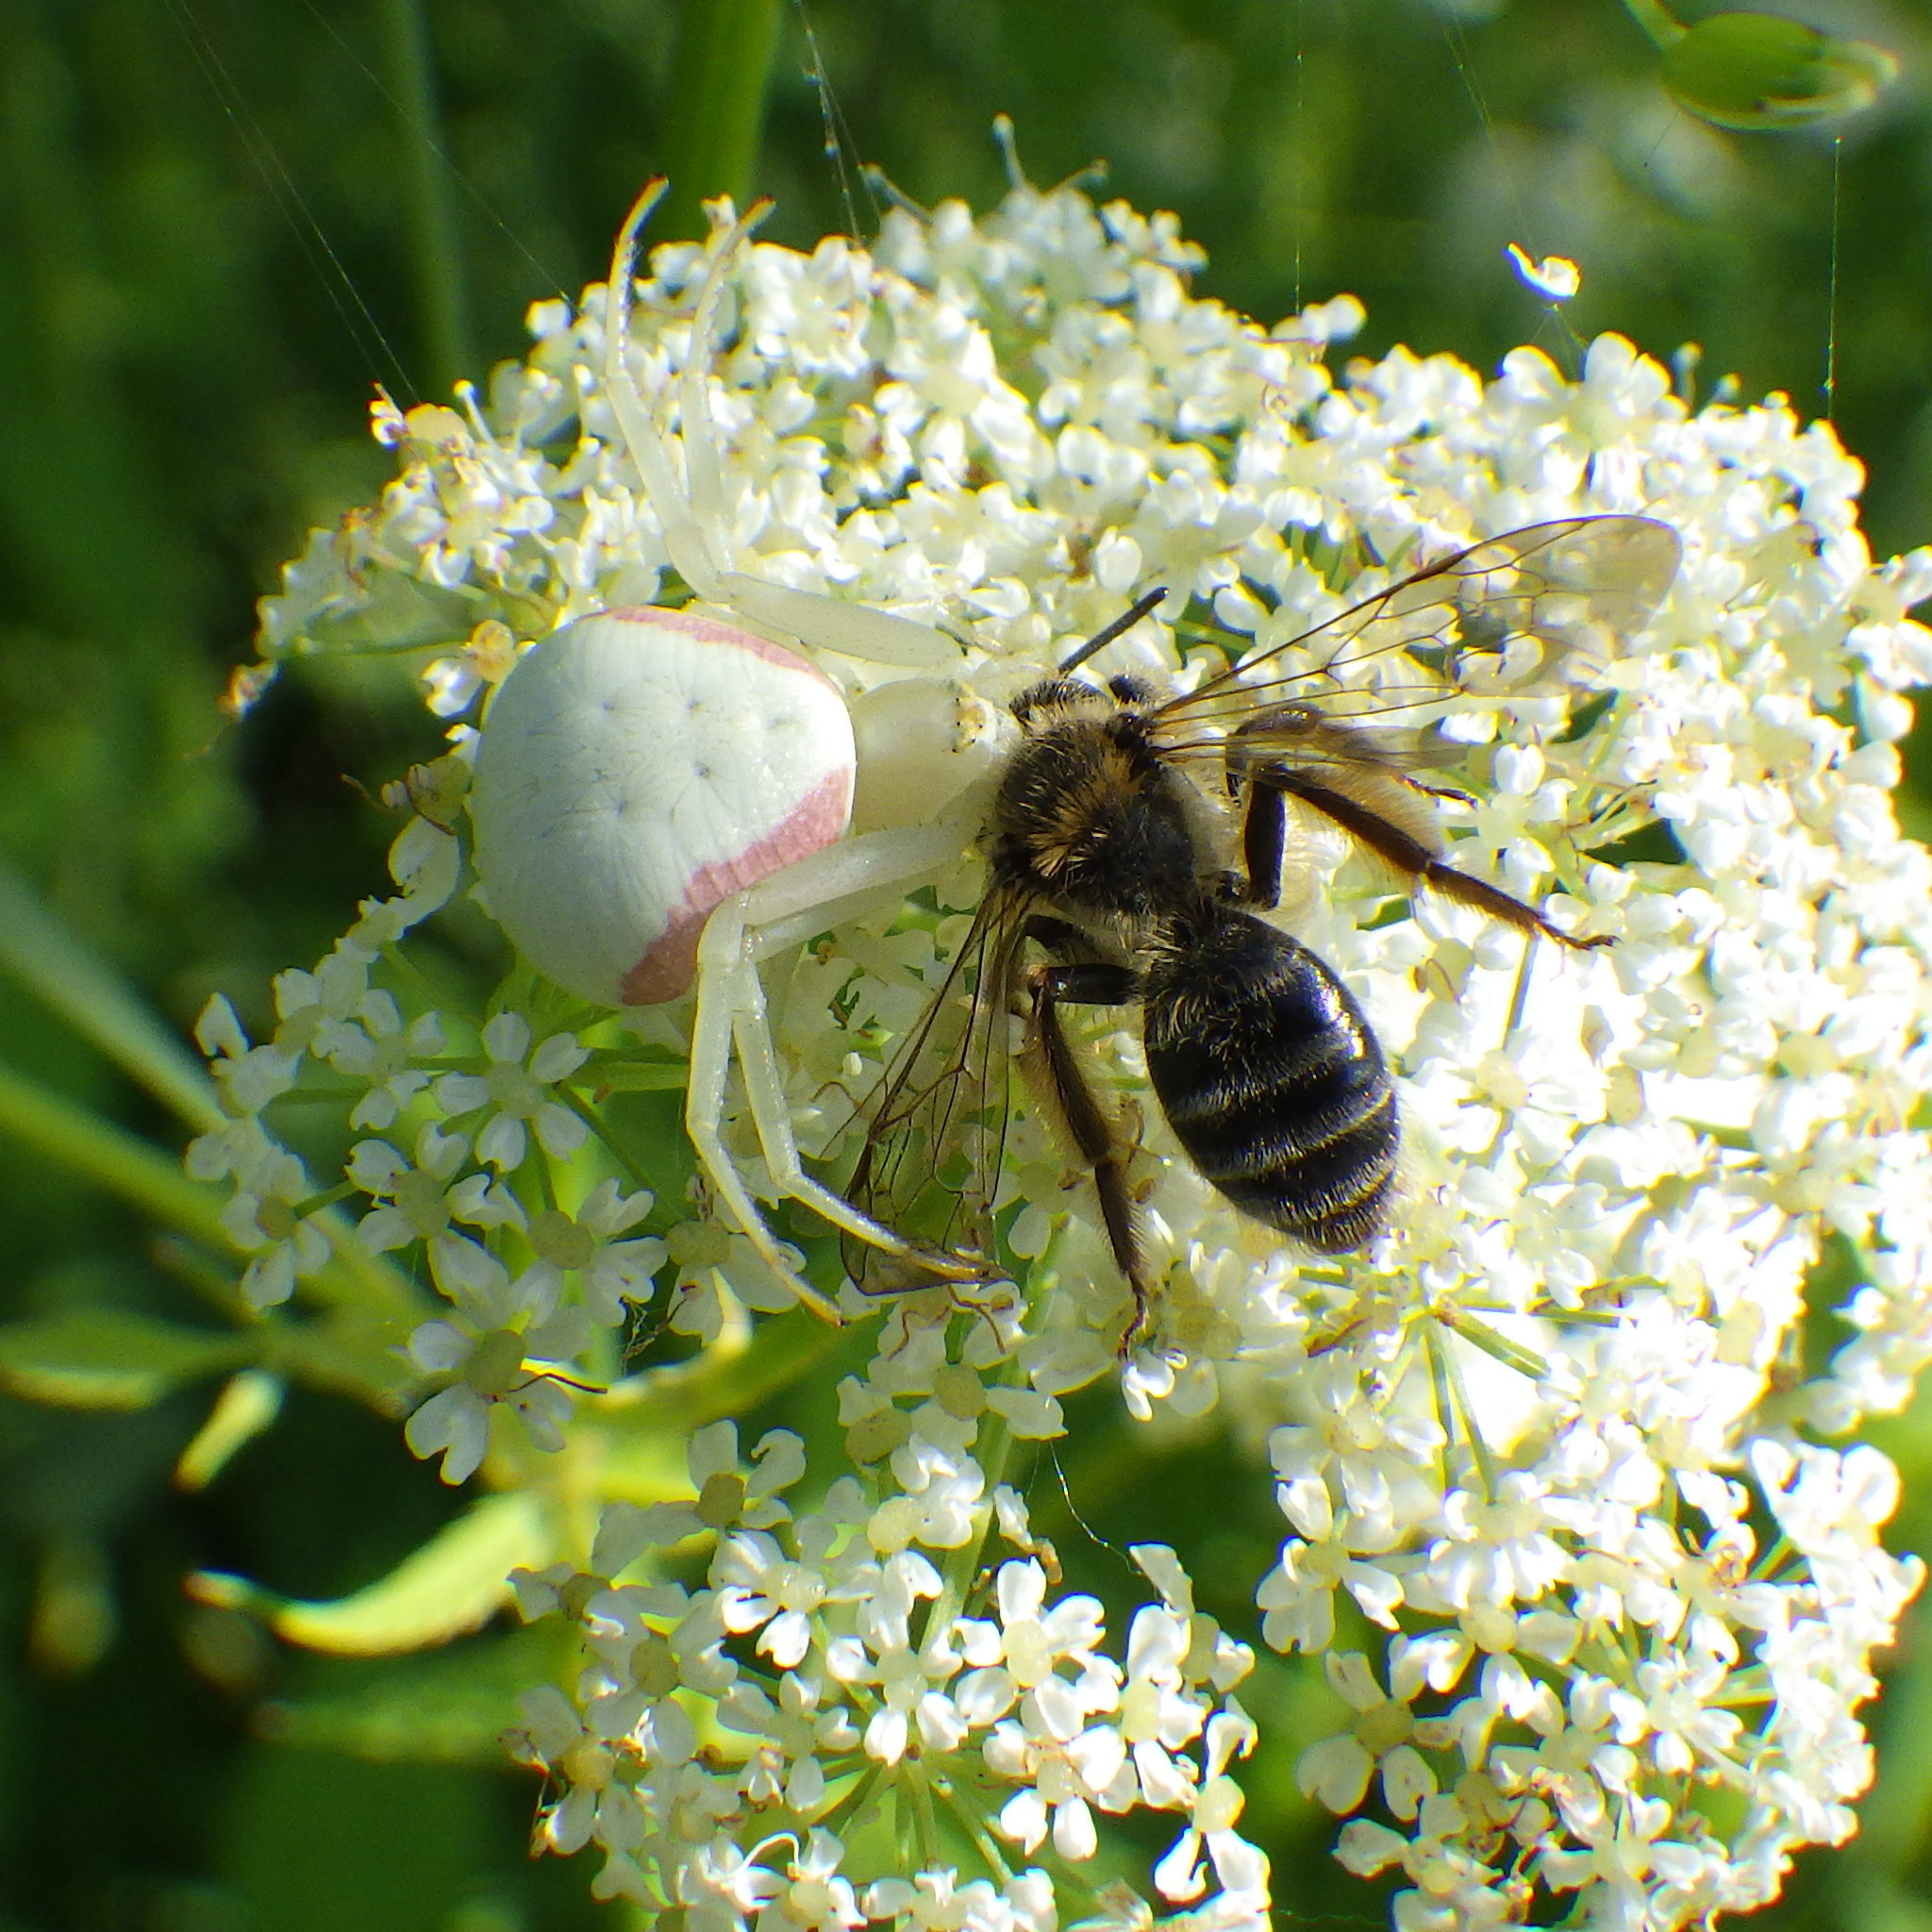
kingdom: Animalia
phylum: Arthropoda
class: Arachnida
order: Araneae
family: Thomisidae
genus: Misumena
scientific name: Misumena vatia
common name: Goldenrod crab spider
